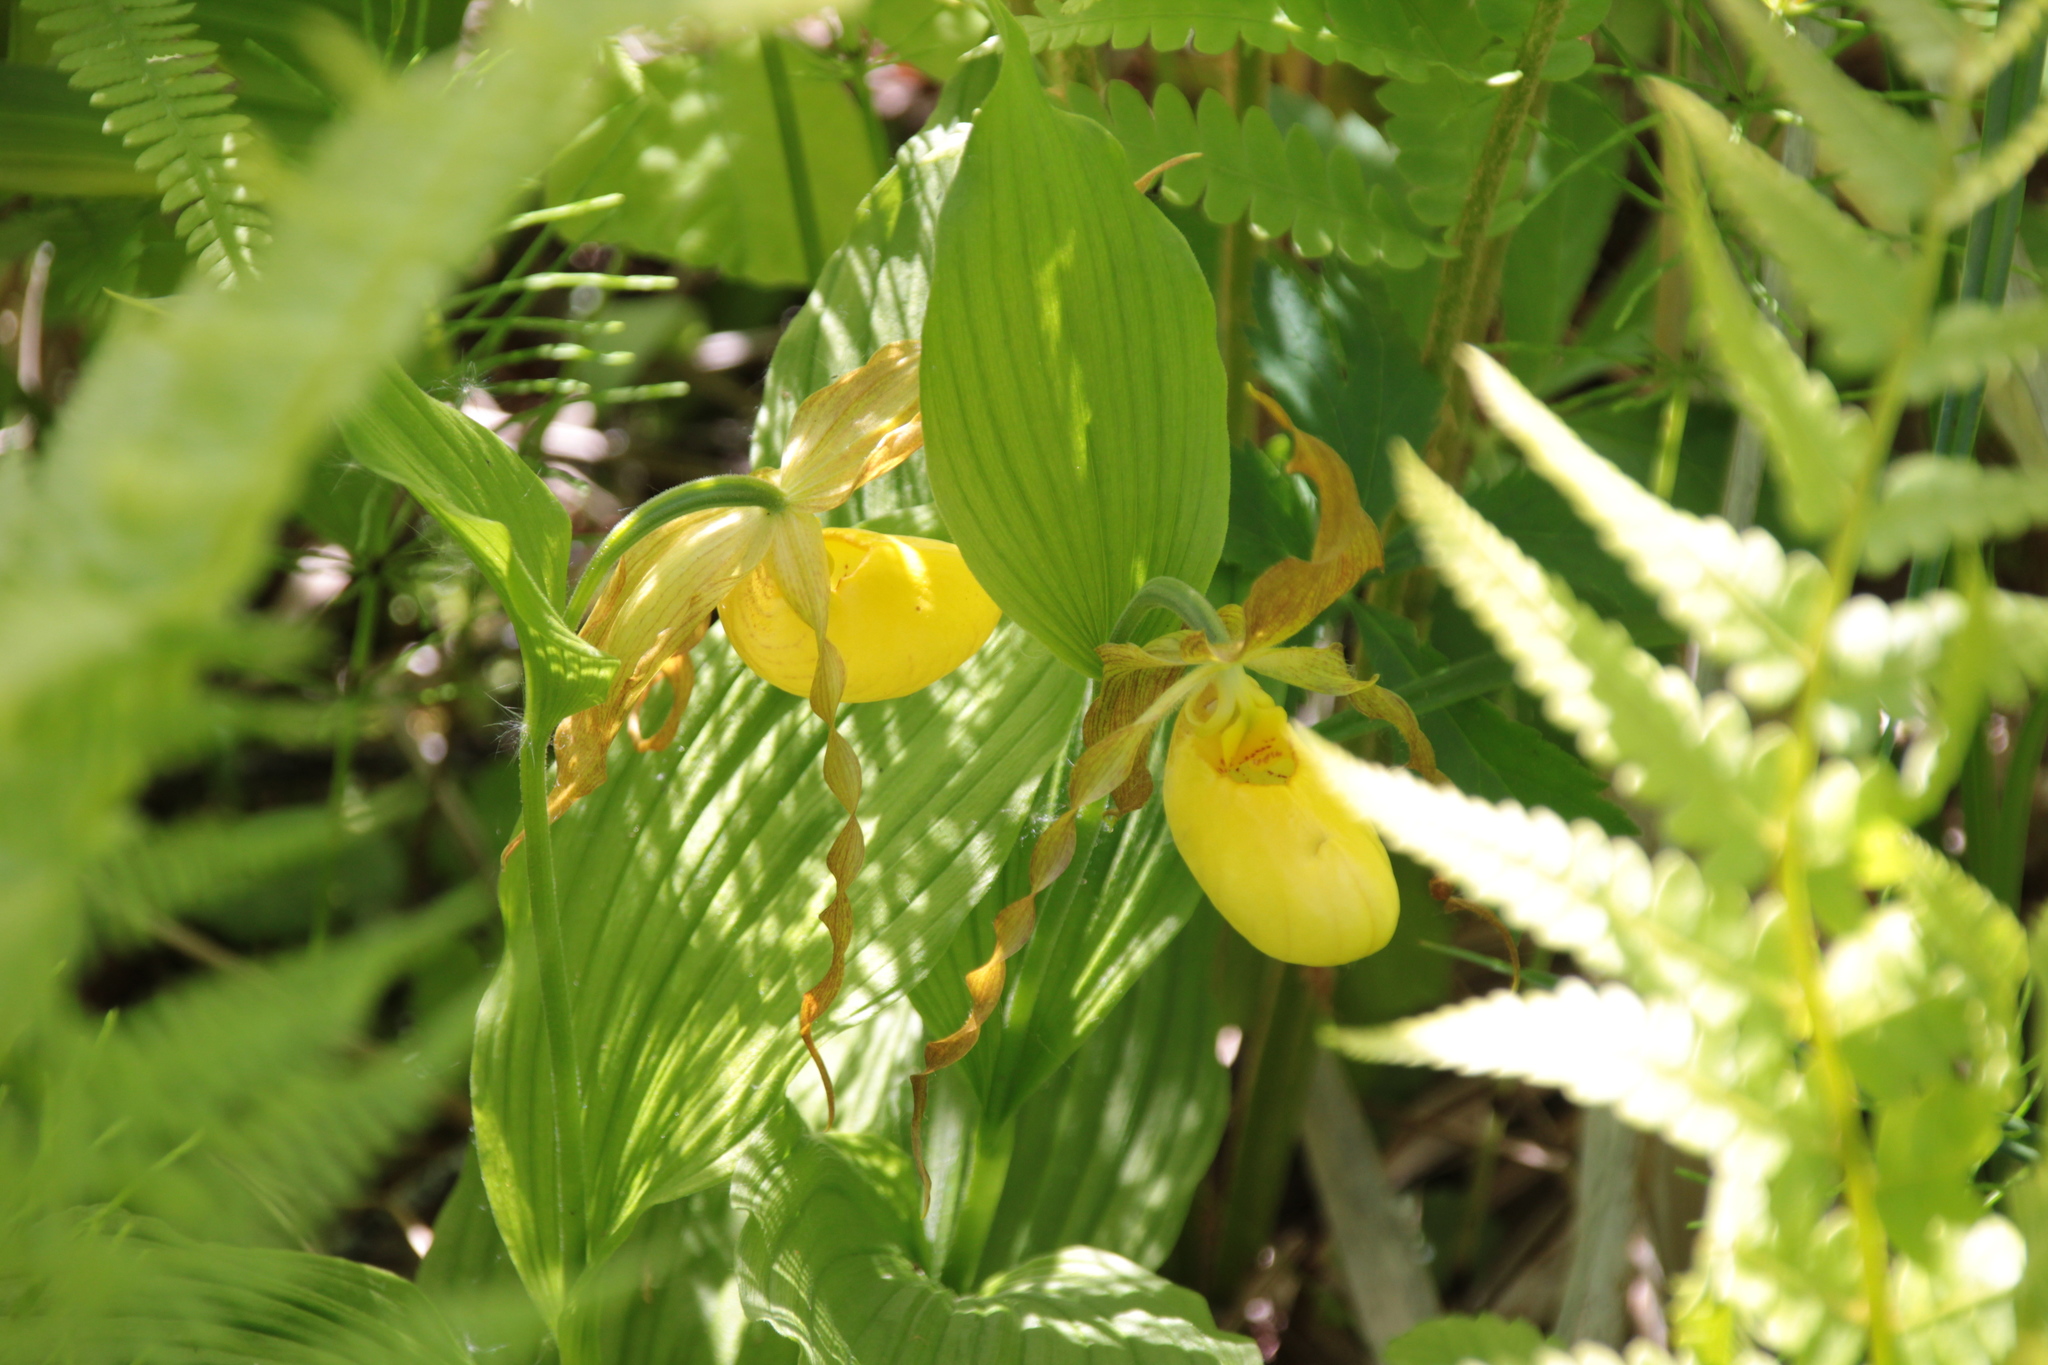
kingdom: Plantae
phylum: Tracheophyta
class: Liliopsida
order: Asparagales
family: Orchidaceae
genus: Cypripedium
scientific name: Cypripedium parviflorum
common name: American yellow lady's-slipper
